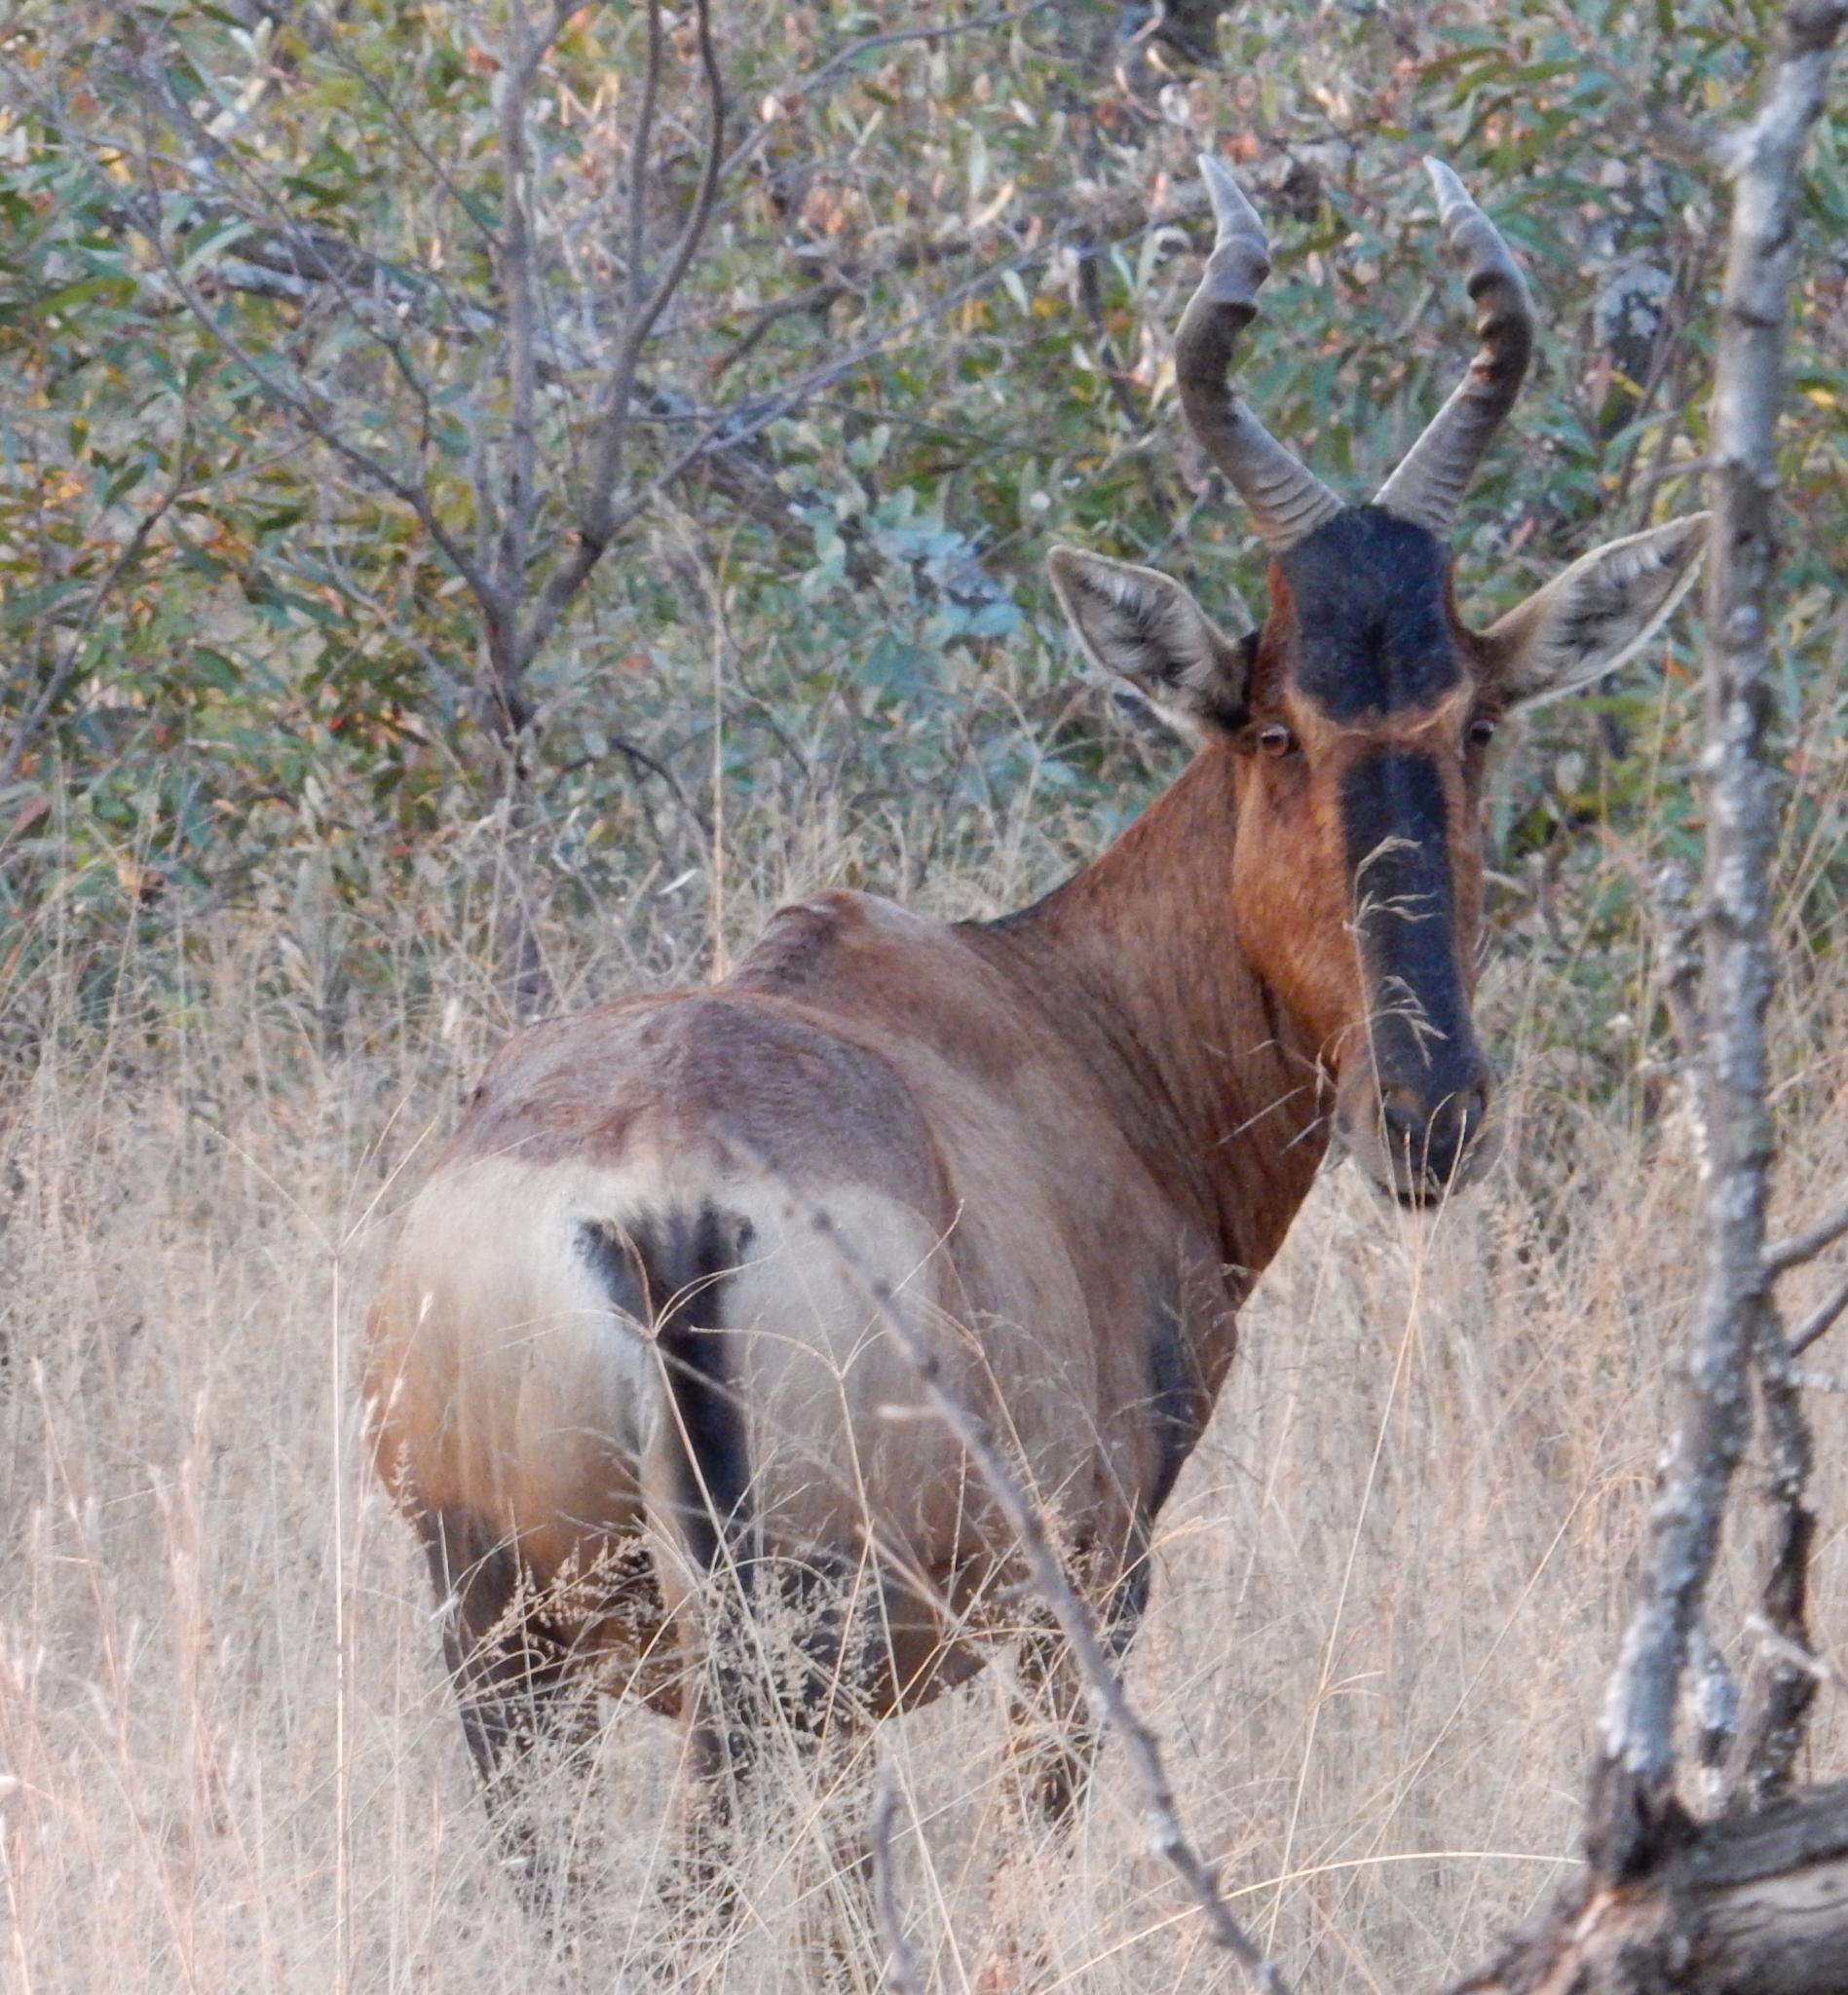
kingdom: Animalia
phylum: Chordata
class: Mammalia
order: Artiodactyla
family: Bovidae
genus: Alcelaphus
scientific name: Alcelaphus caama
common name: Red hartebeest
